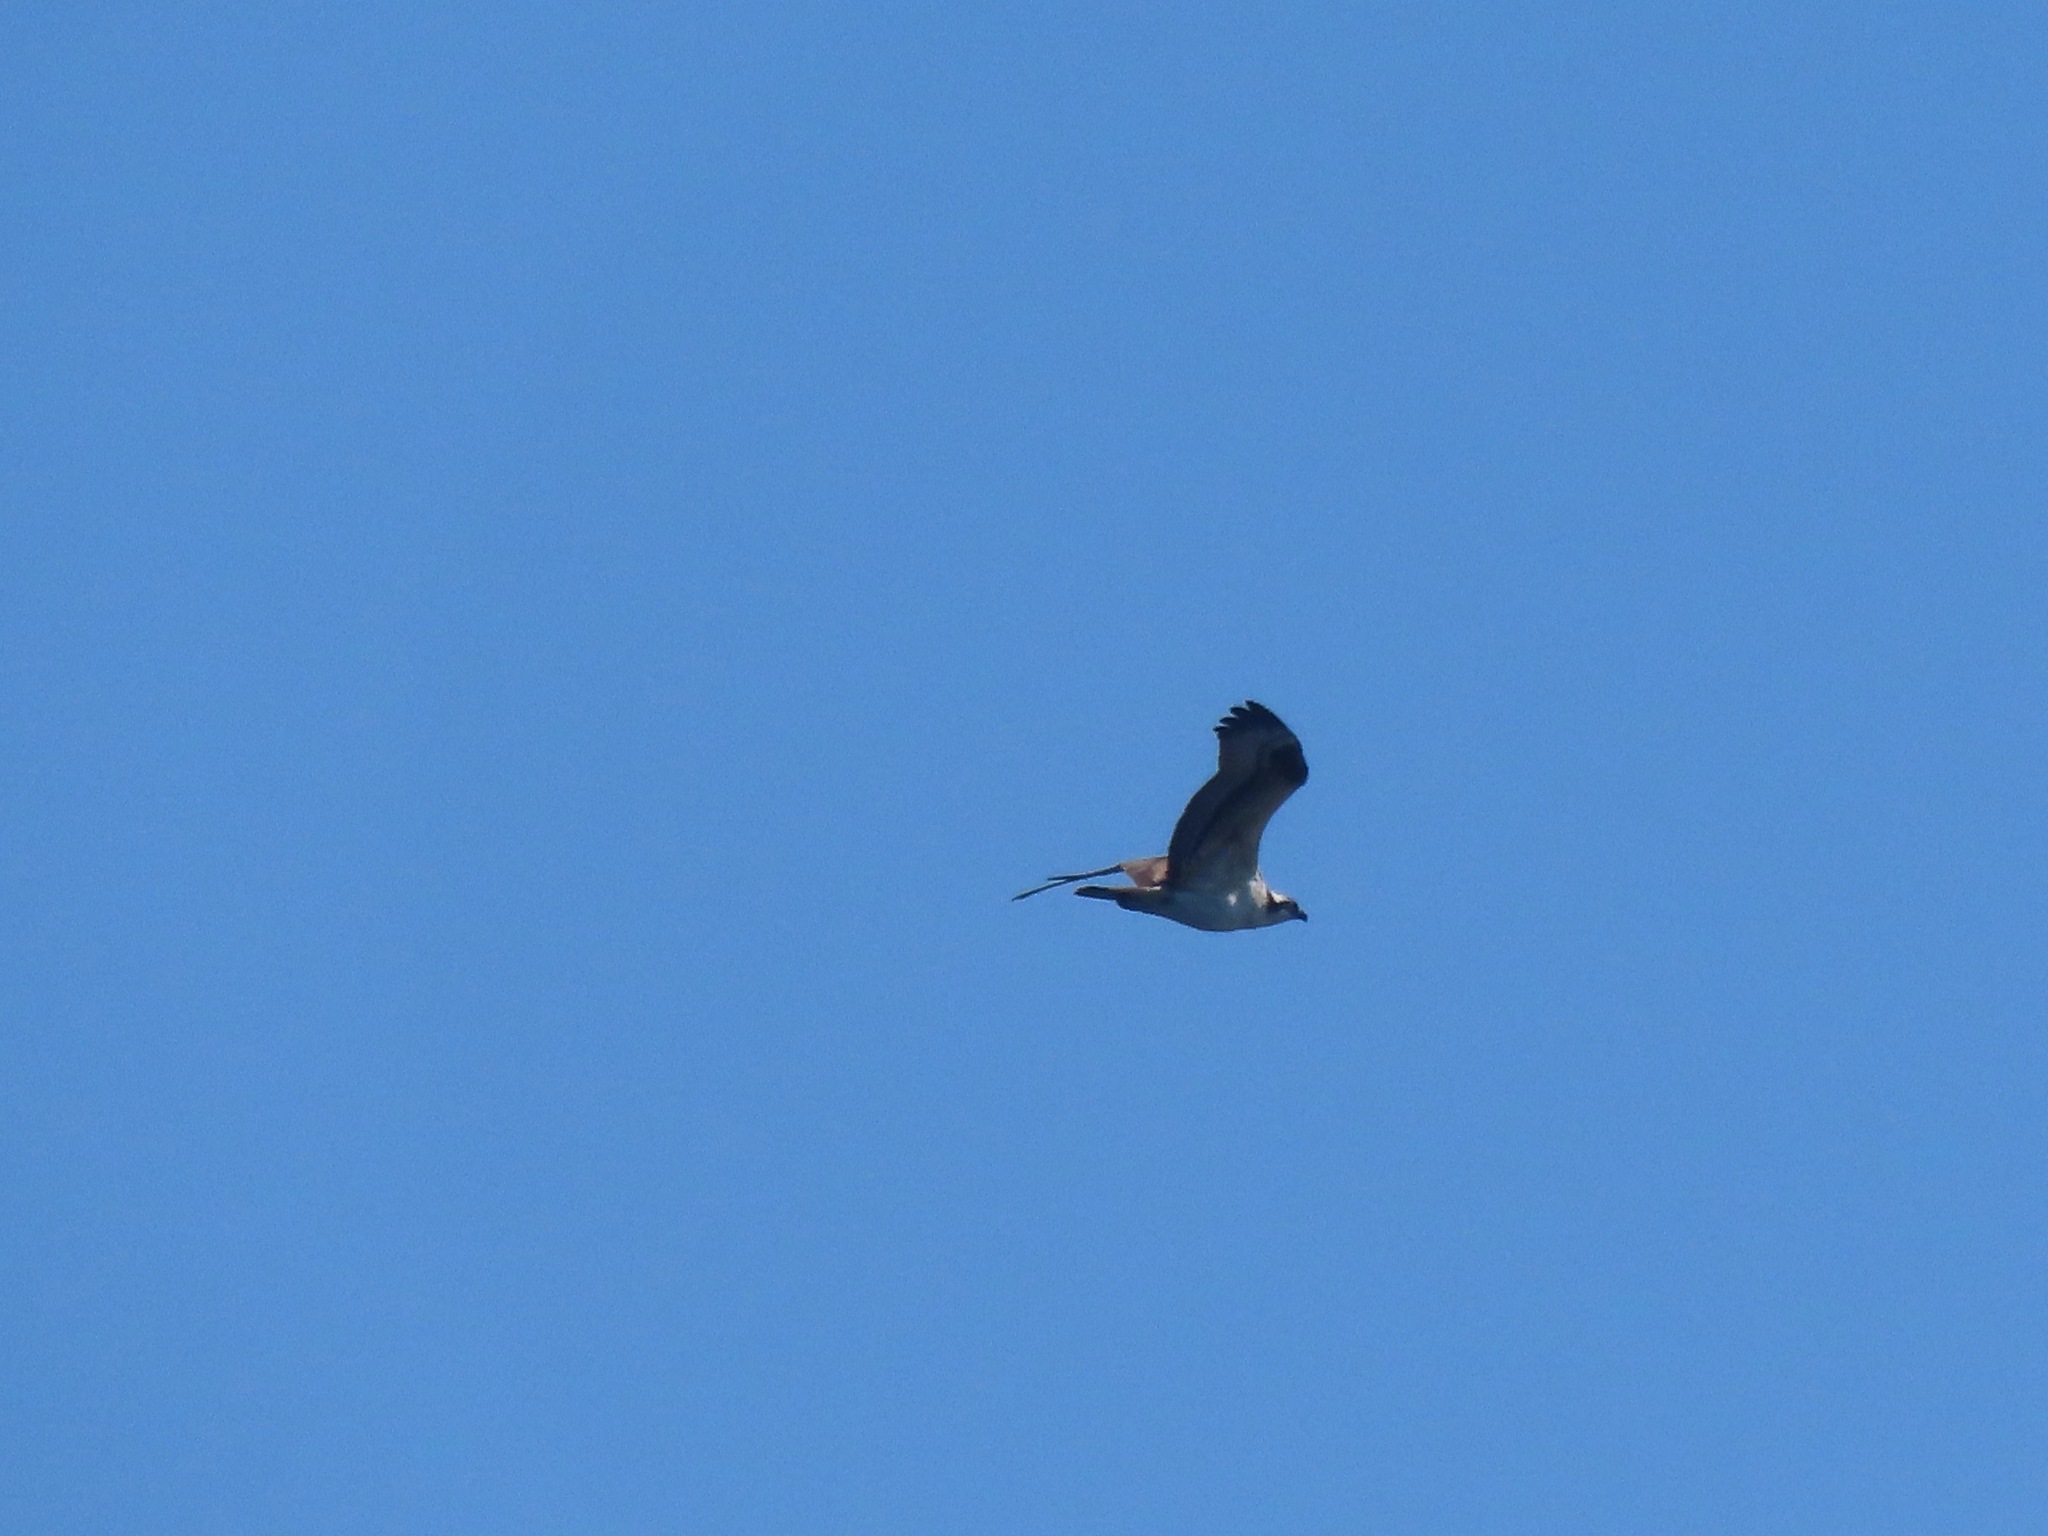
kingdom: Animalia
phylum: Chordata
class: Aves
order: Accipitriformes
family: Pandionidae
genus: Pandion
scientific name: Pandion haliaetus
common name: Osprey
